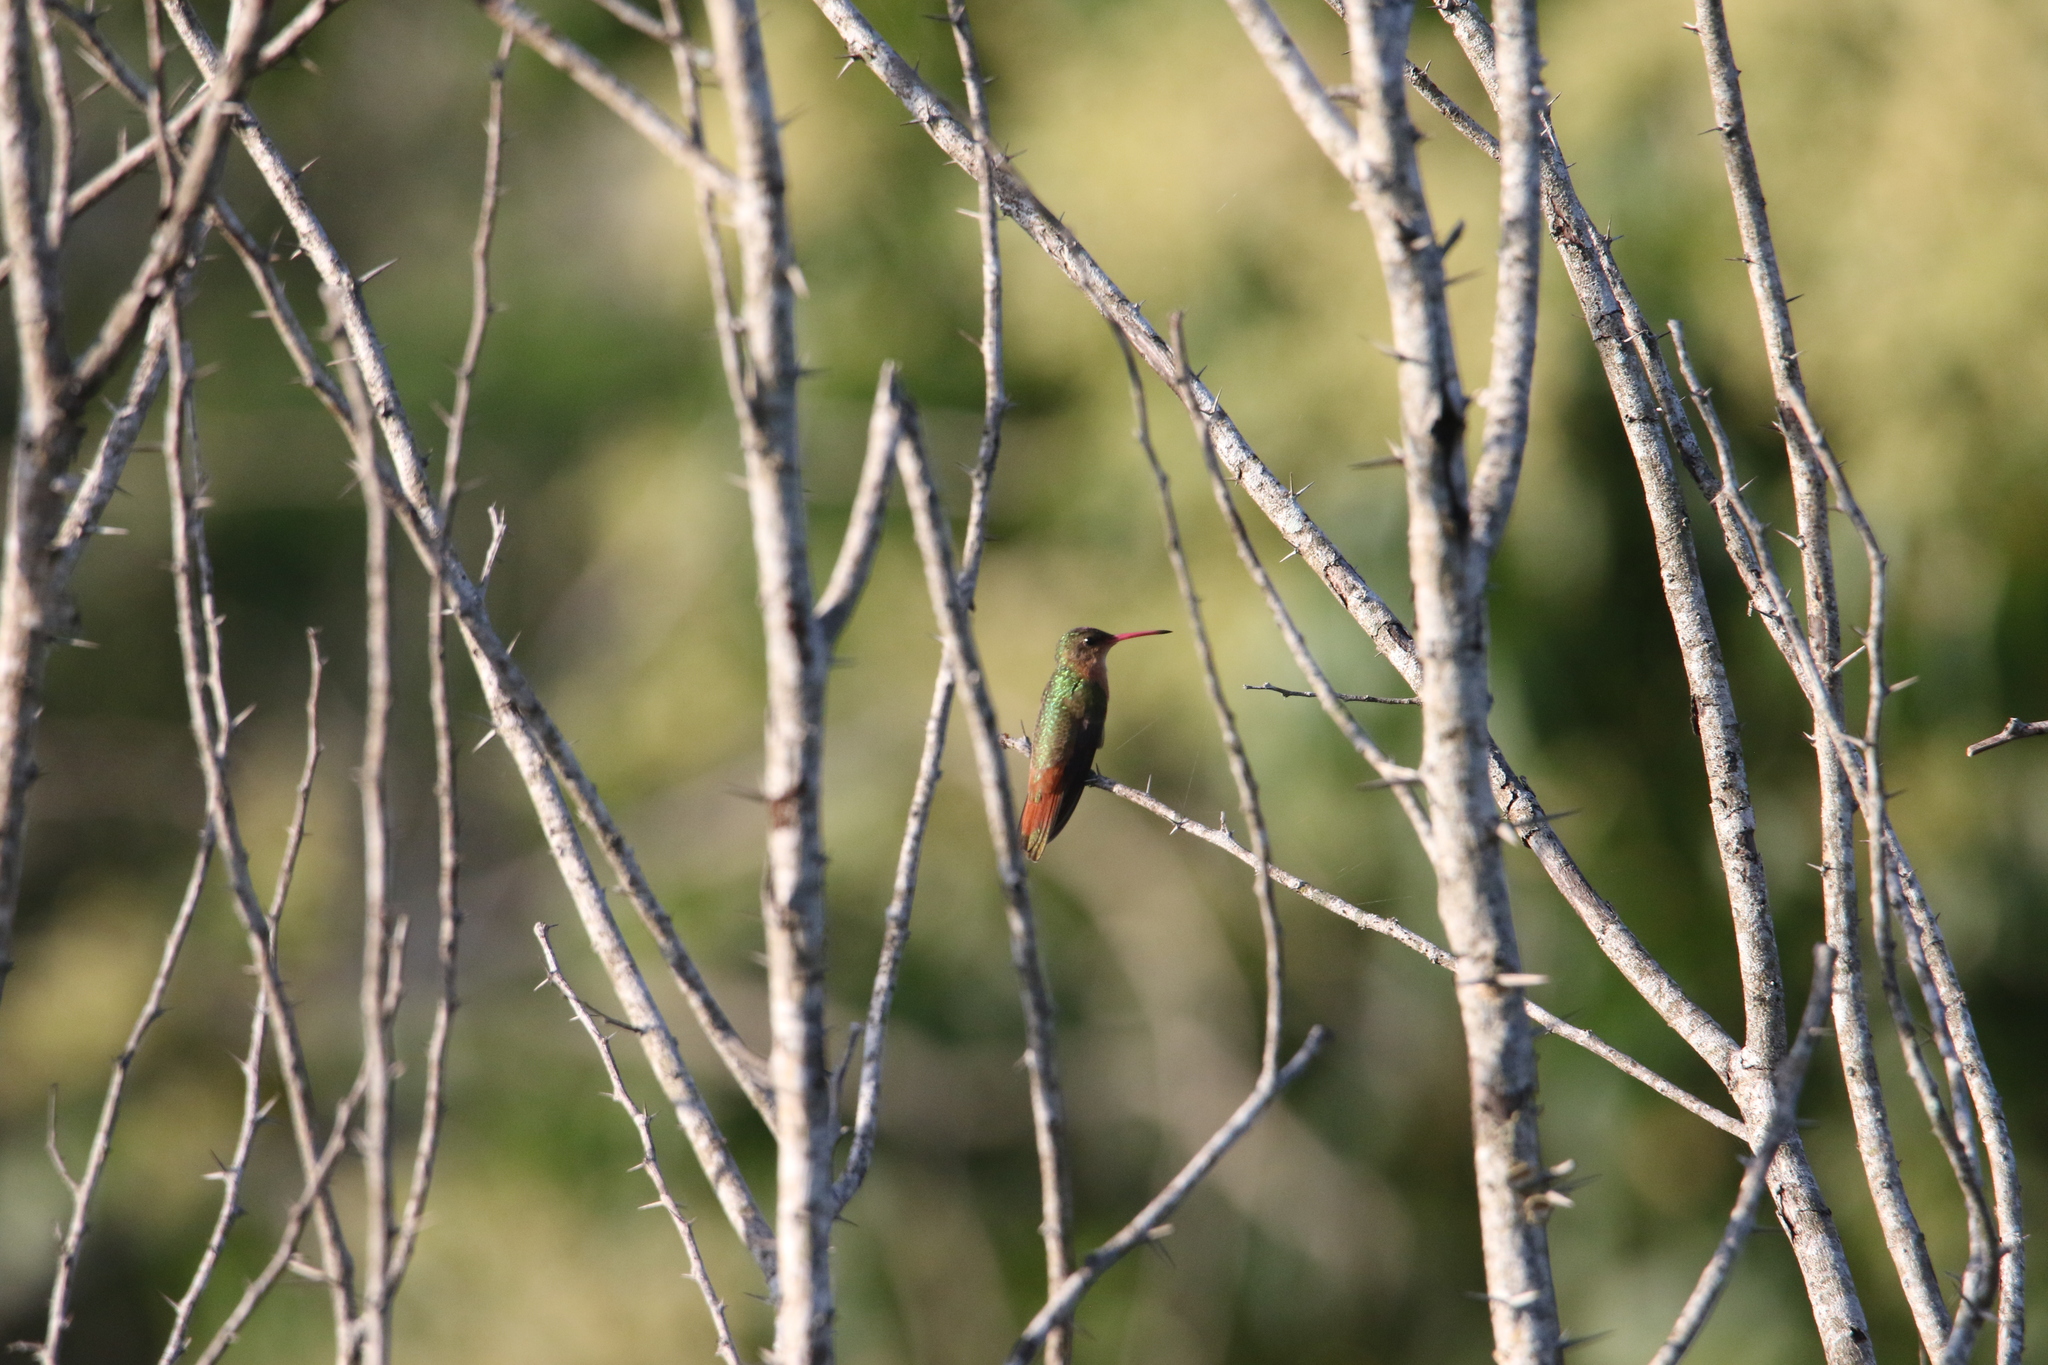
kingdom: Animalia
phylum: Chordata
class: Aves
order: Apodiformes
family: Trochilidae
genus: Amazilia
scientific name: Amazilia rutila
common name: Cinnamon hummingbird
